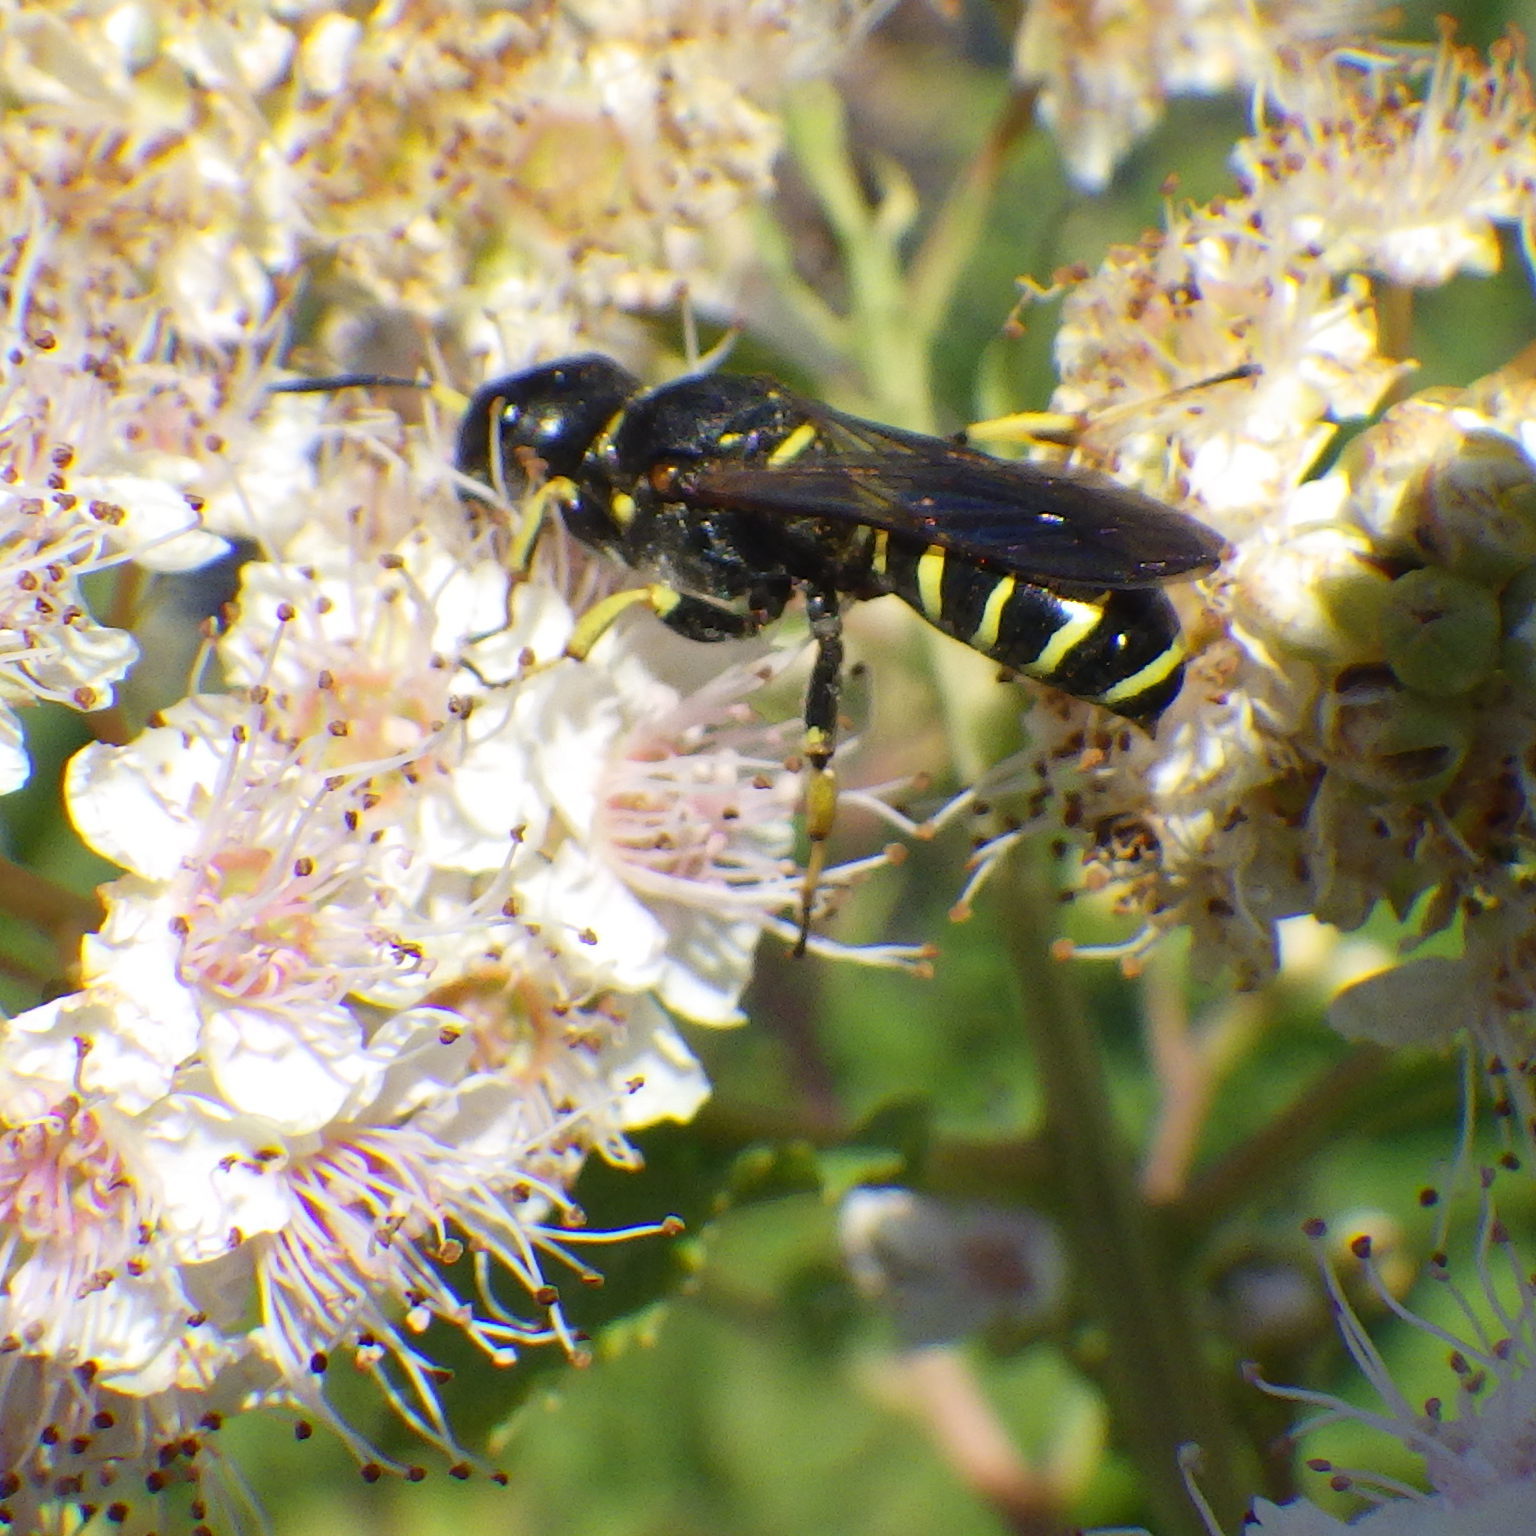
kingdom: Animalia
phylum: Arthropoda
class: Insecta
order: Hymenoptera
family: Crabronidae
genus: Ectemnius
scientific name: Ectemnius arcuatus
